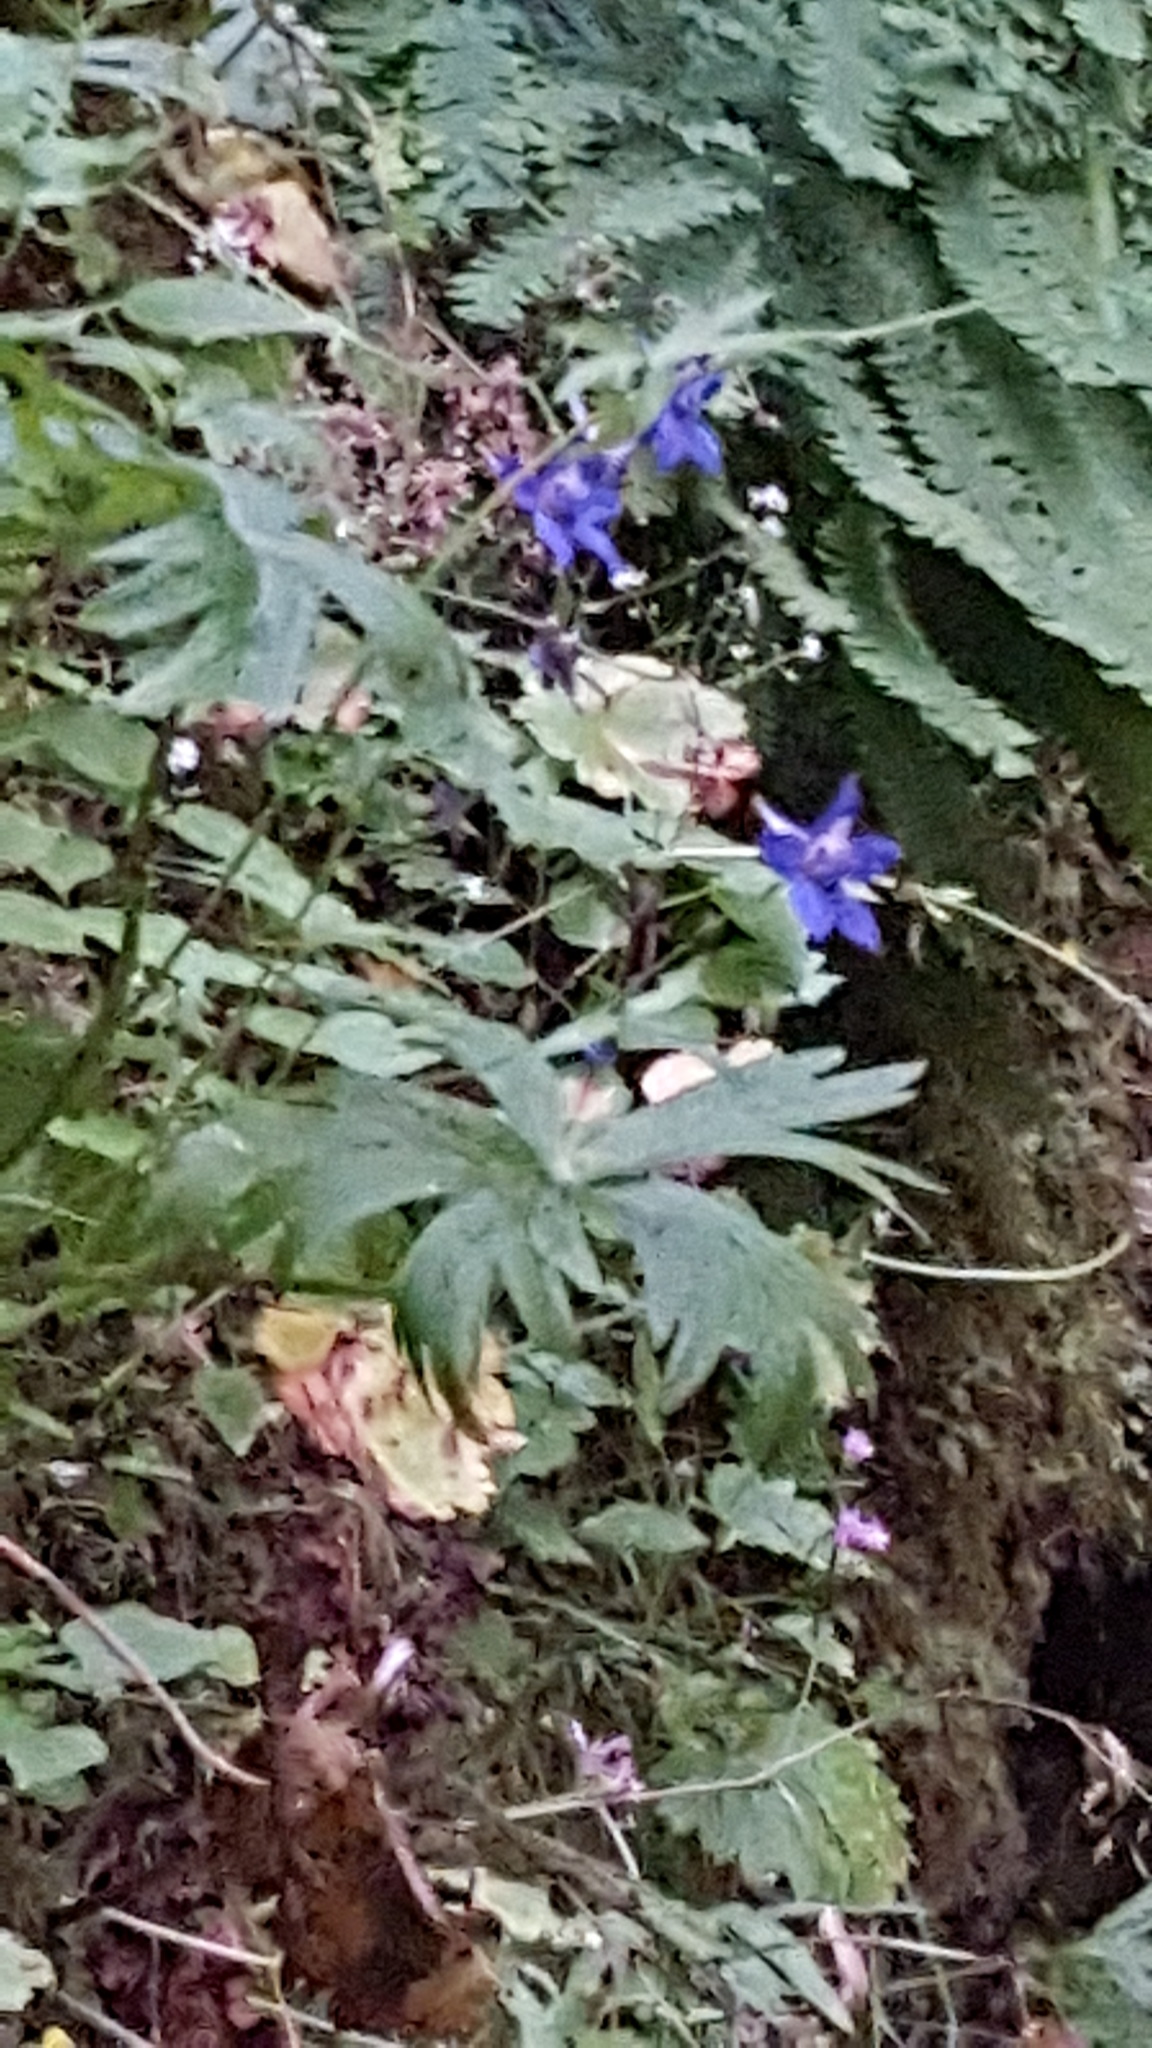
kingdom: Plantae
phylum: Tracheophyta
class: Magnoliopsida
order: Ranunculales
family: Ranunculaceae
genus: Delphinium
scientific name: Delphinium trolliifolium
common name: Cow-poison
